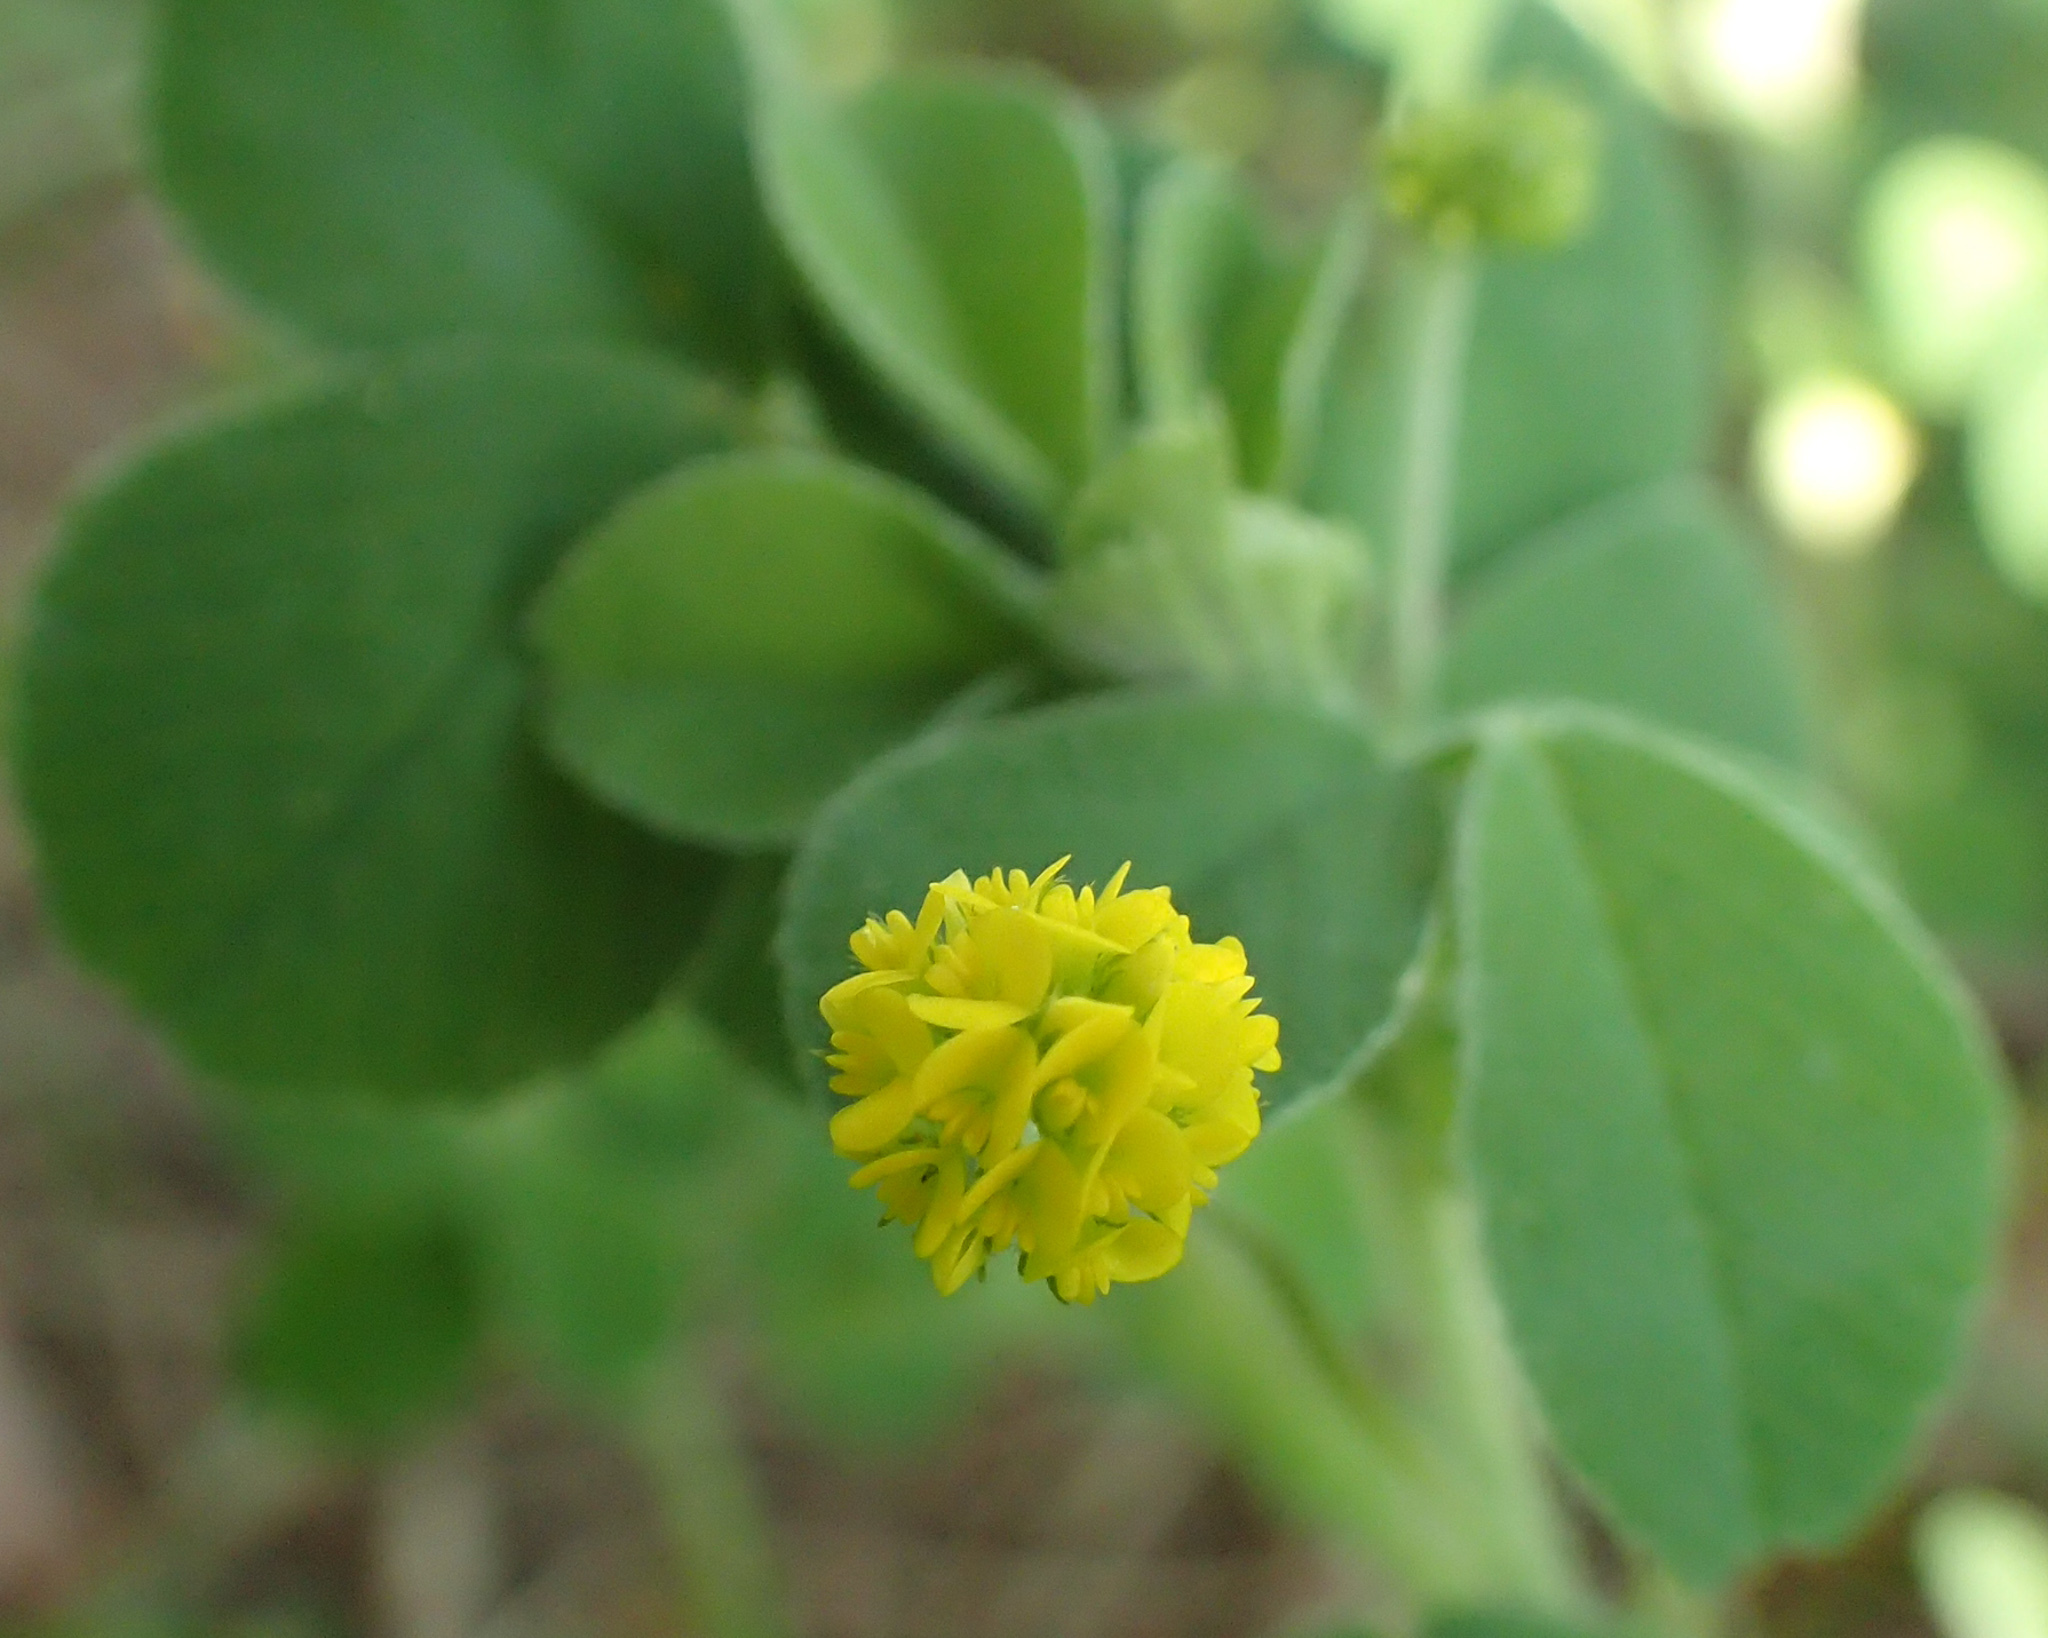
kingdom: Plantae
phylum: Tracheophyta
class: Magnoliopsida
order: Fabales
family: Fabaceae
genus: Medicago
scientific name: Medicago lupulina
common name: Black medick
